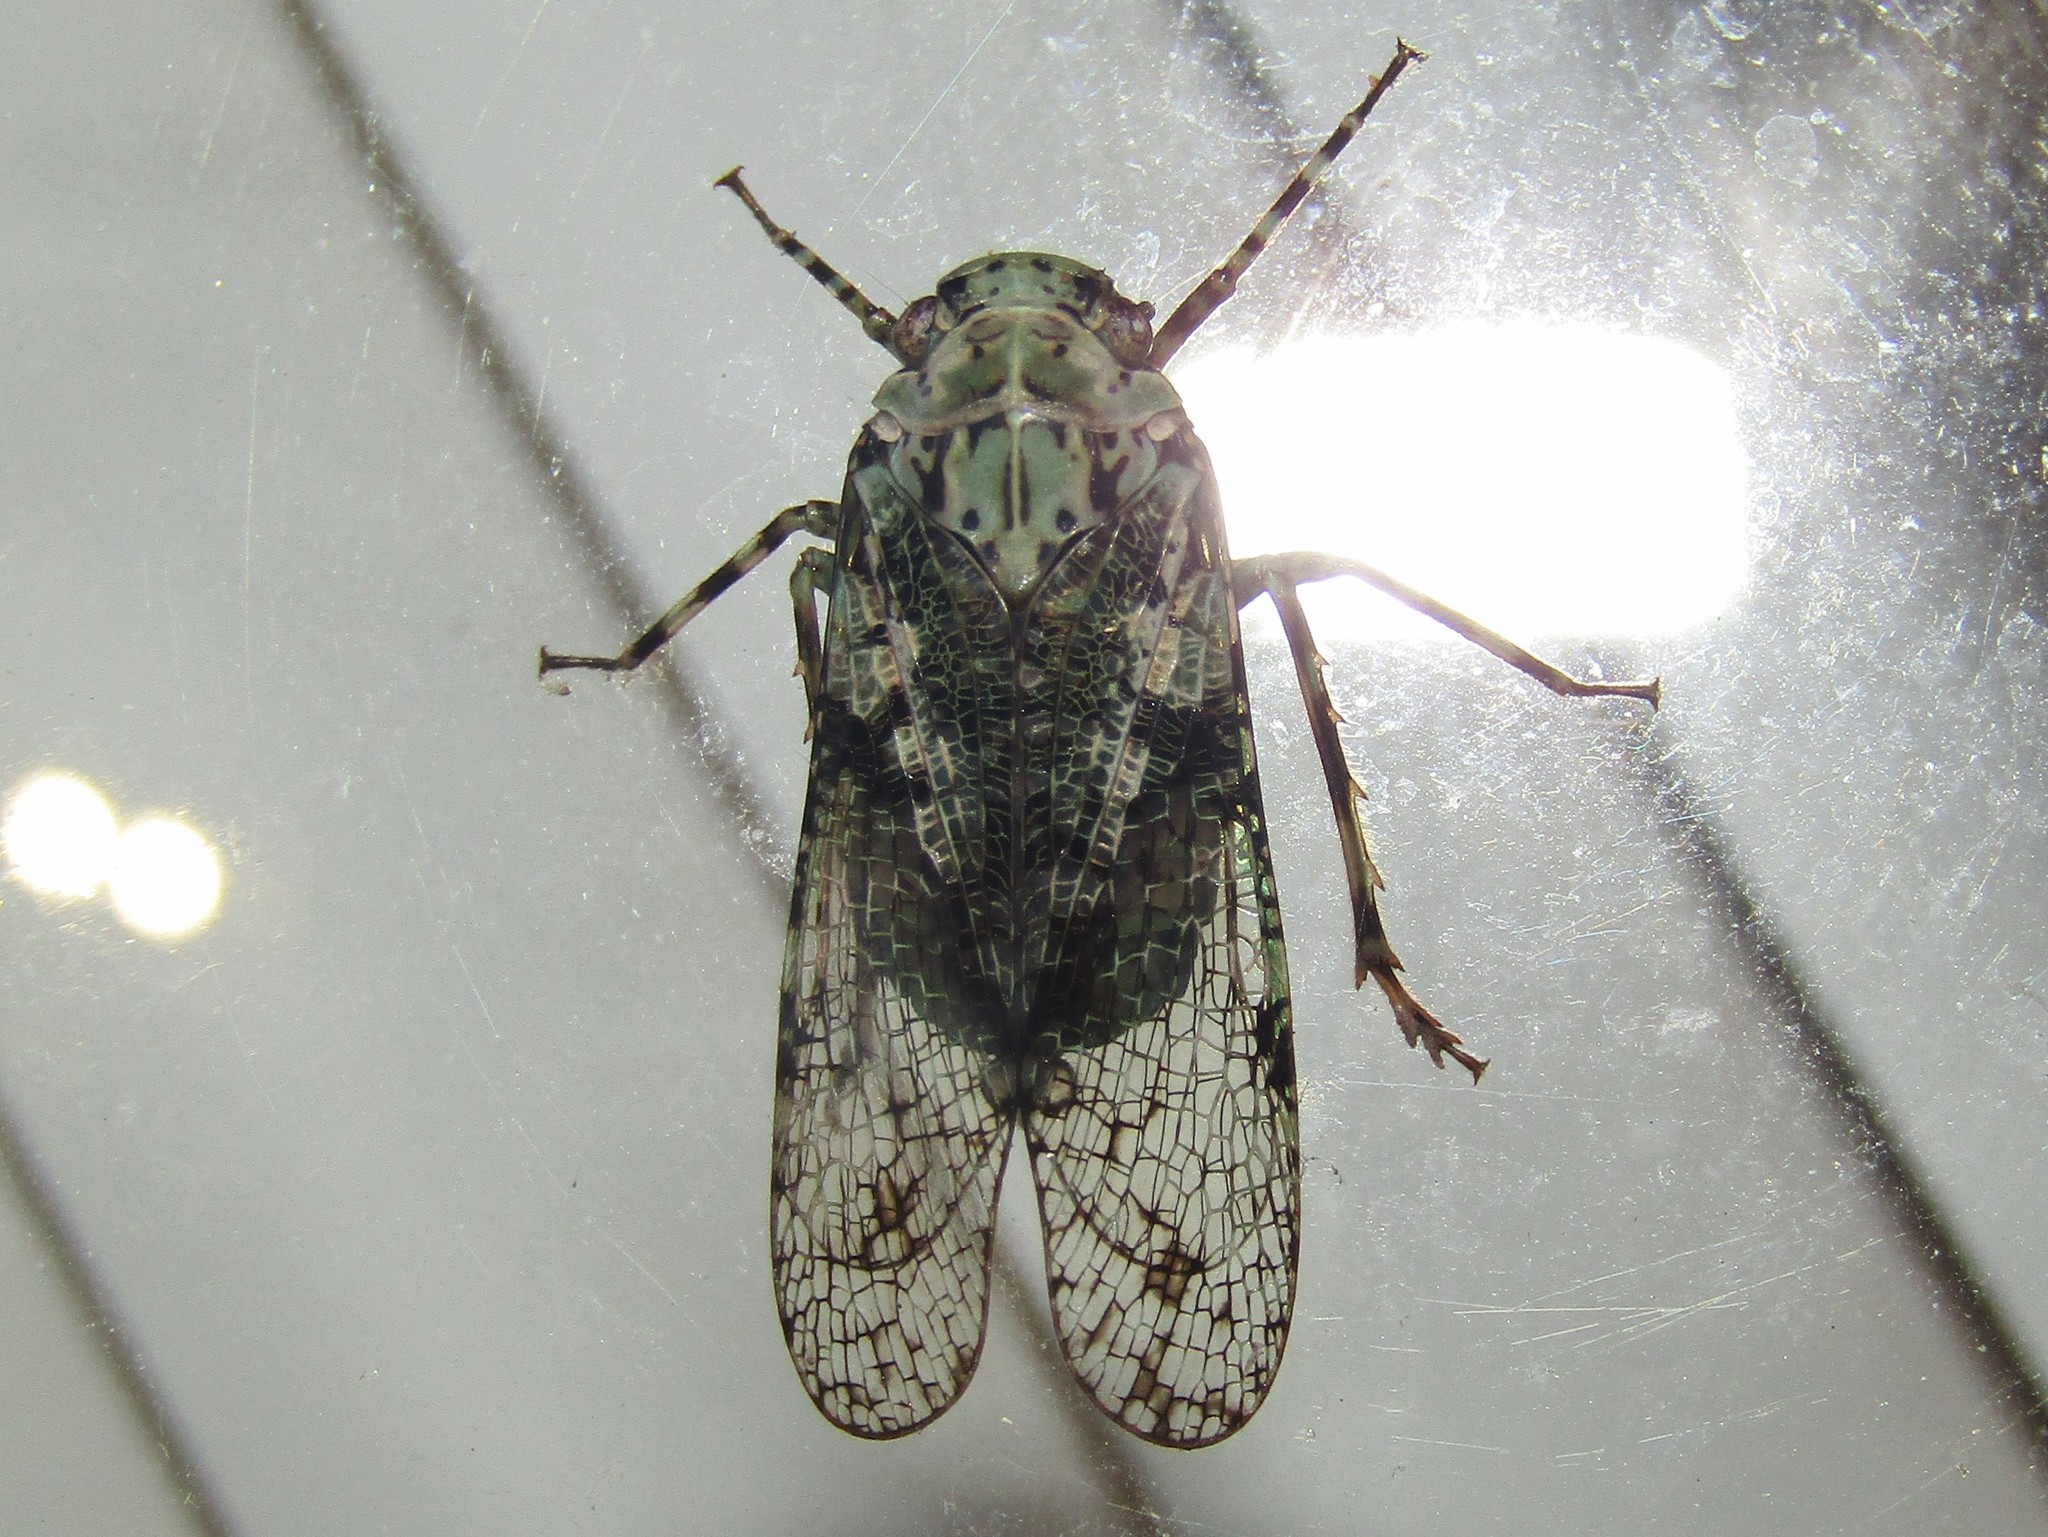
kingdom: Animalia
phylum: Arthropoda
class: Insecta
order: Hemiptera
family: Fulgoridae
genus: Calyptoproctus
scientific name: Calyptoproctus marmoratus
